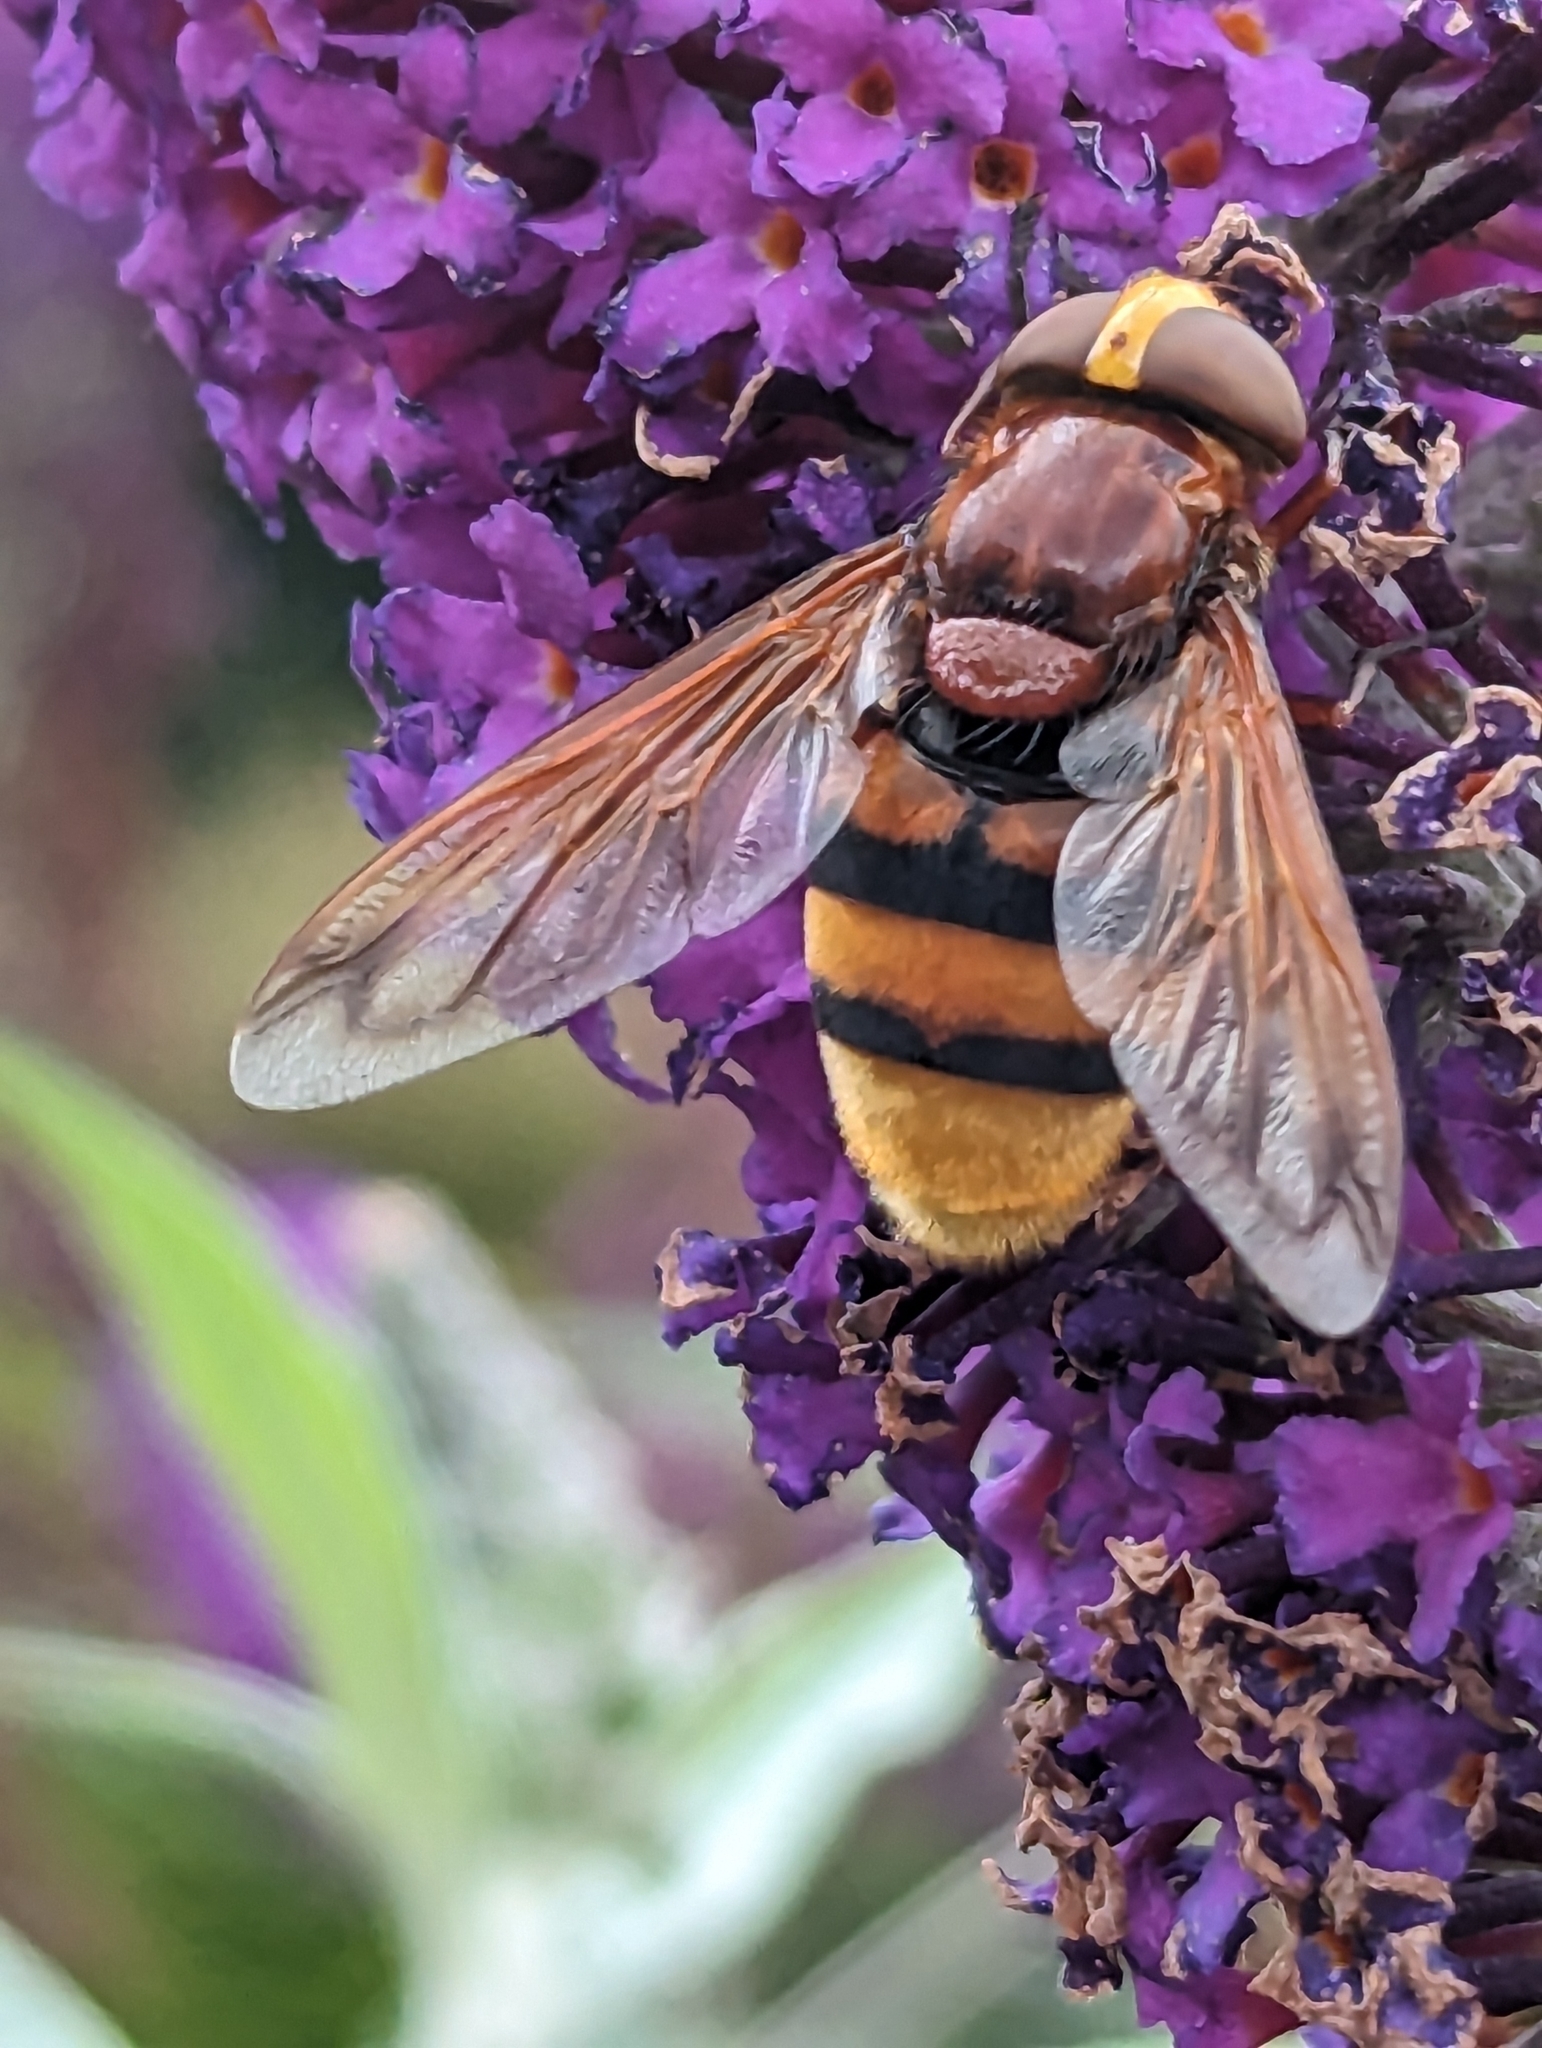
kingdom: Animalia
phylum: Arthropoda
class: Insecta
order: Diptera
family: Syrphidae
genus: Volucella
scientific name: Volucella zonaria
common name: Hornet hoverfly
